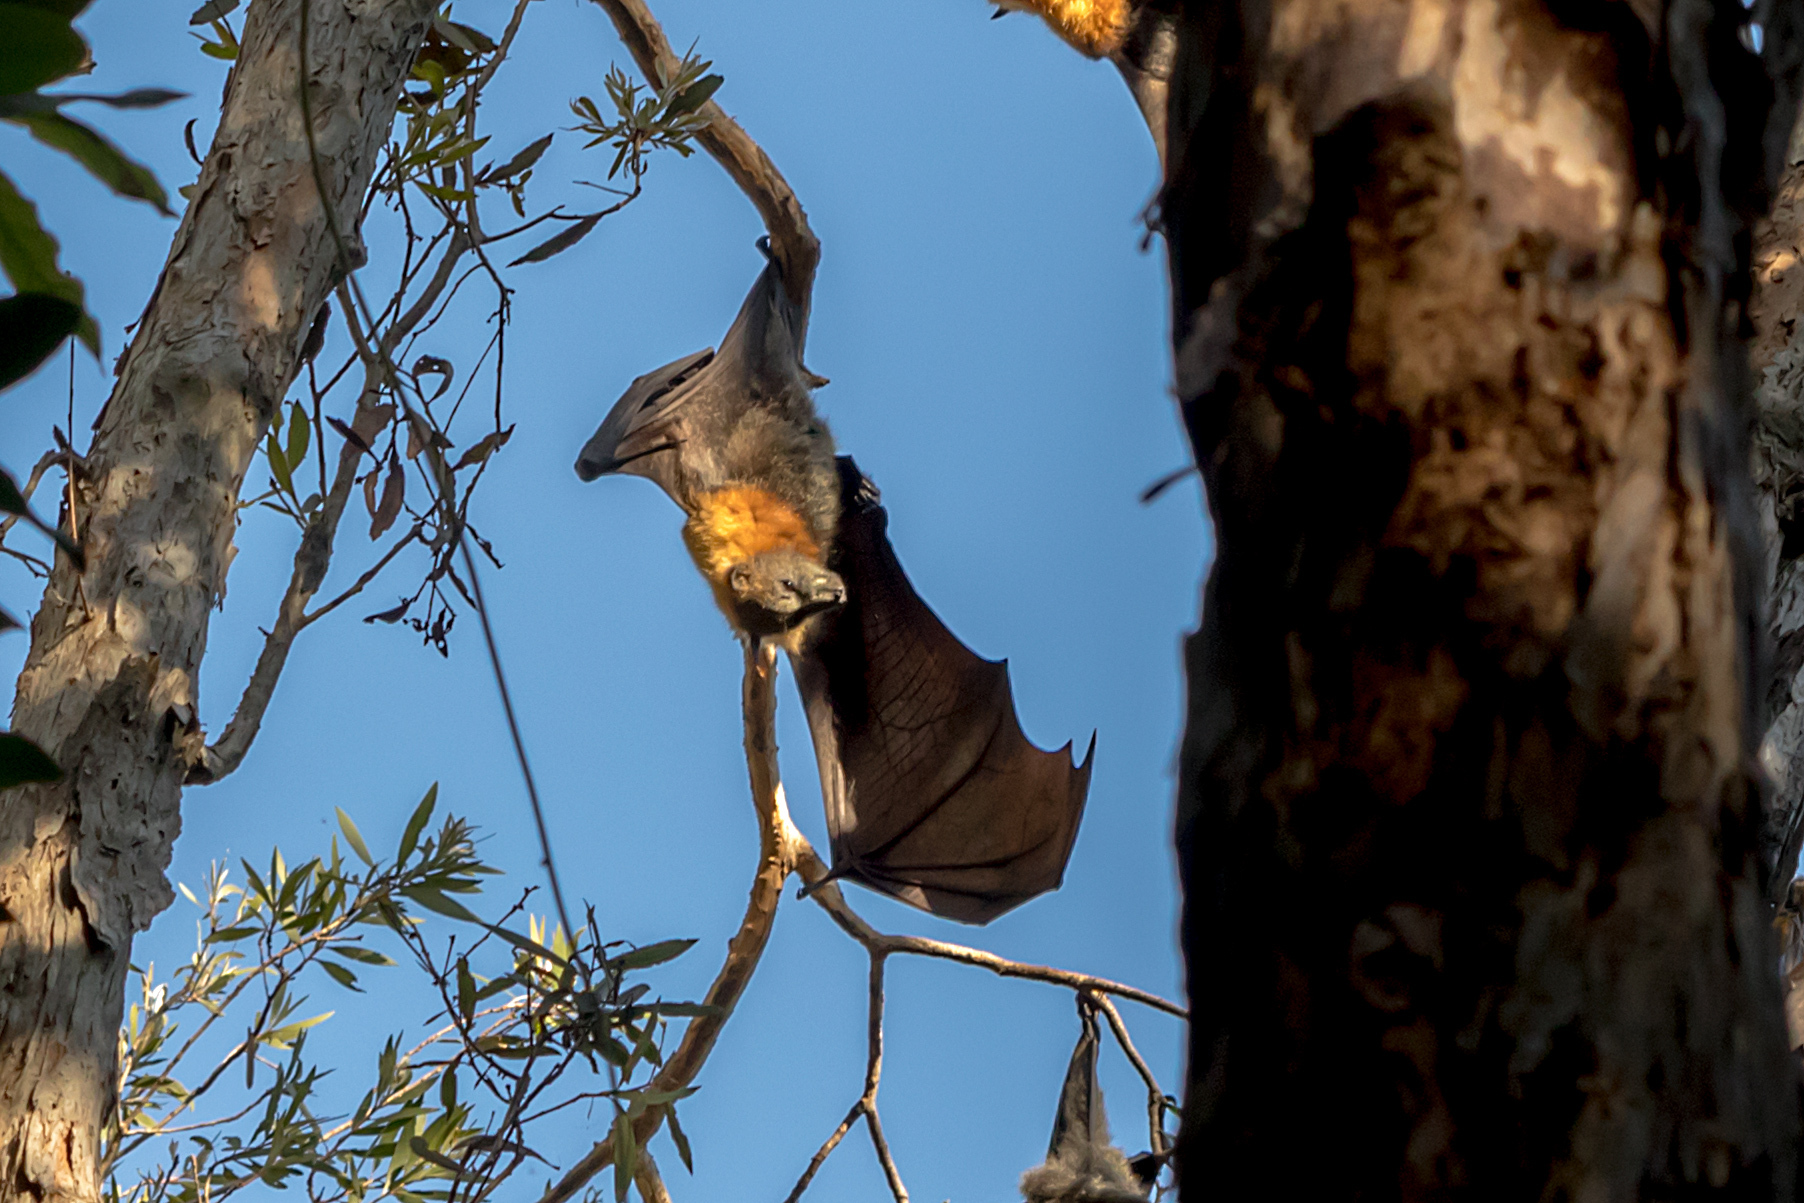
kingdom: Animalia
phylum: Chordata
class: Mammalia
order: Chiroptera
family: Pteropodidae
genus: Pteropus
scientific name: Pteropus poliocephalus
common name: Gray-headed flying fox
